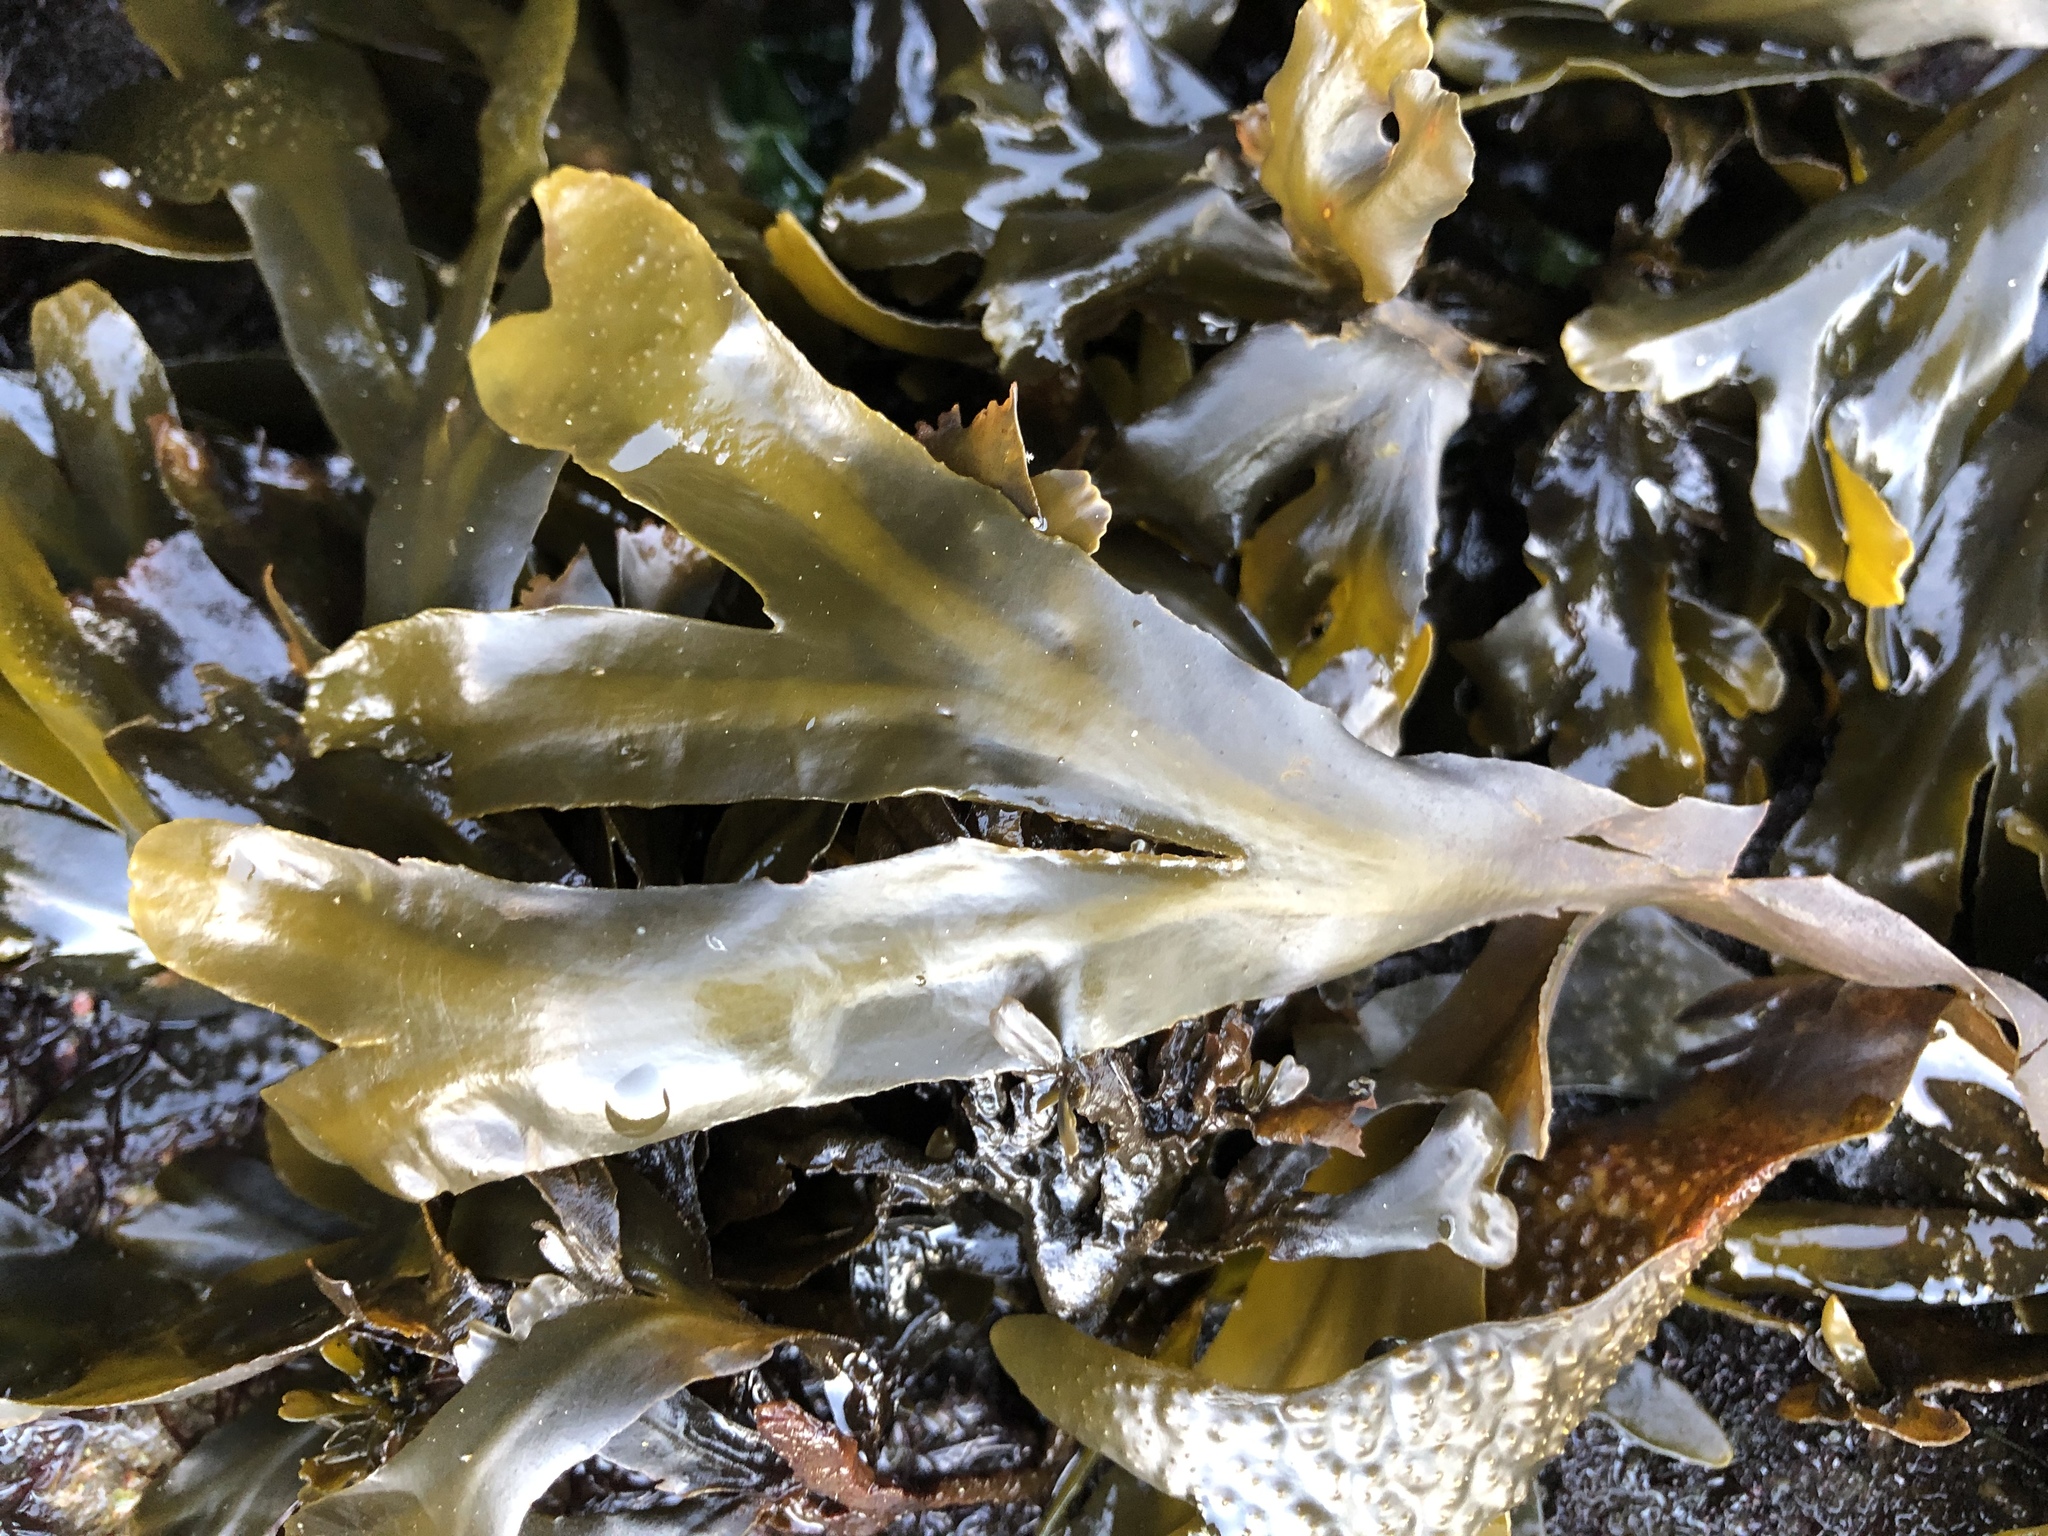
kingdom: Chromista
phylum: Ochrophyta
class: Phaeophyceae
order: Fucales
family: Fucaceae
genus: Fucus
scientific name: Fucus distichus
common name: Rockweed
